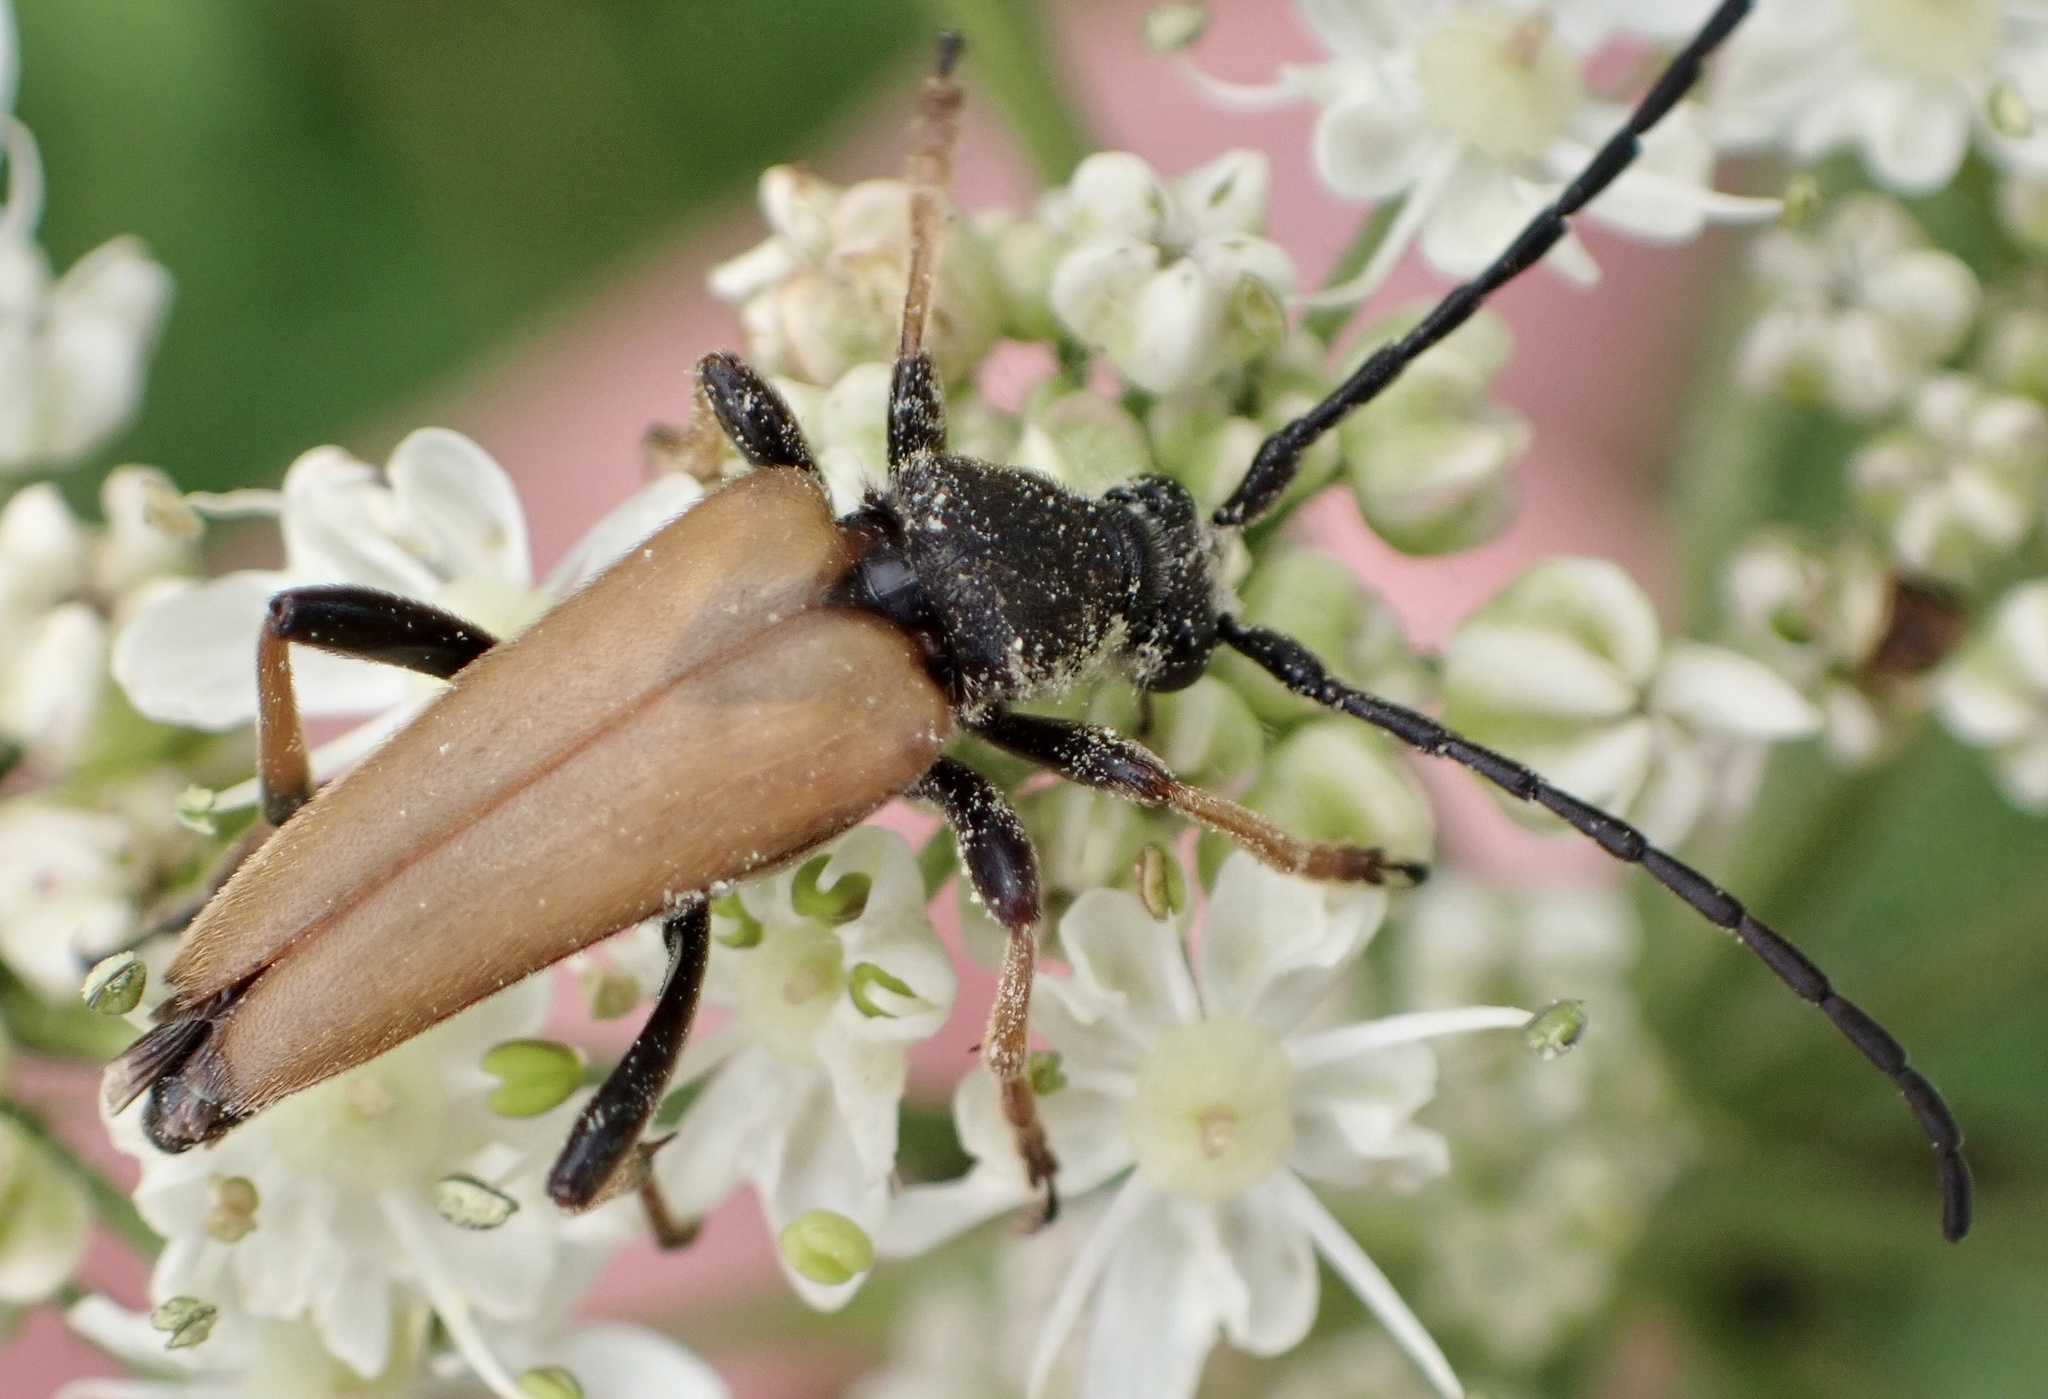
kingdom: Animalia
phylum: Arthropoda
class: Insecta
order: Coleoptera
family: Cerambycidae
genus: Stictoleptura
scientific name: Stictoleptura rubra
